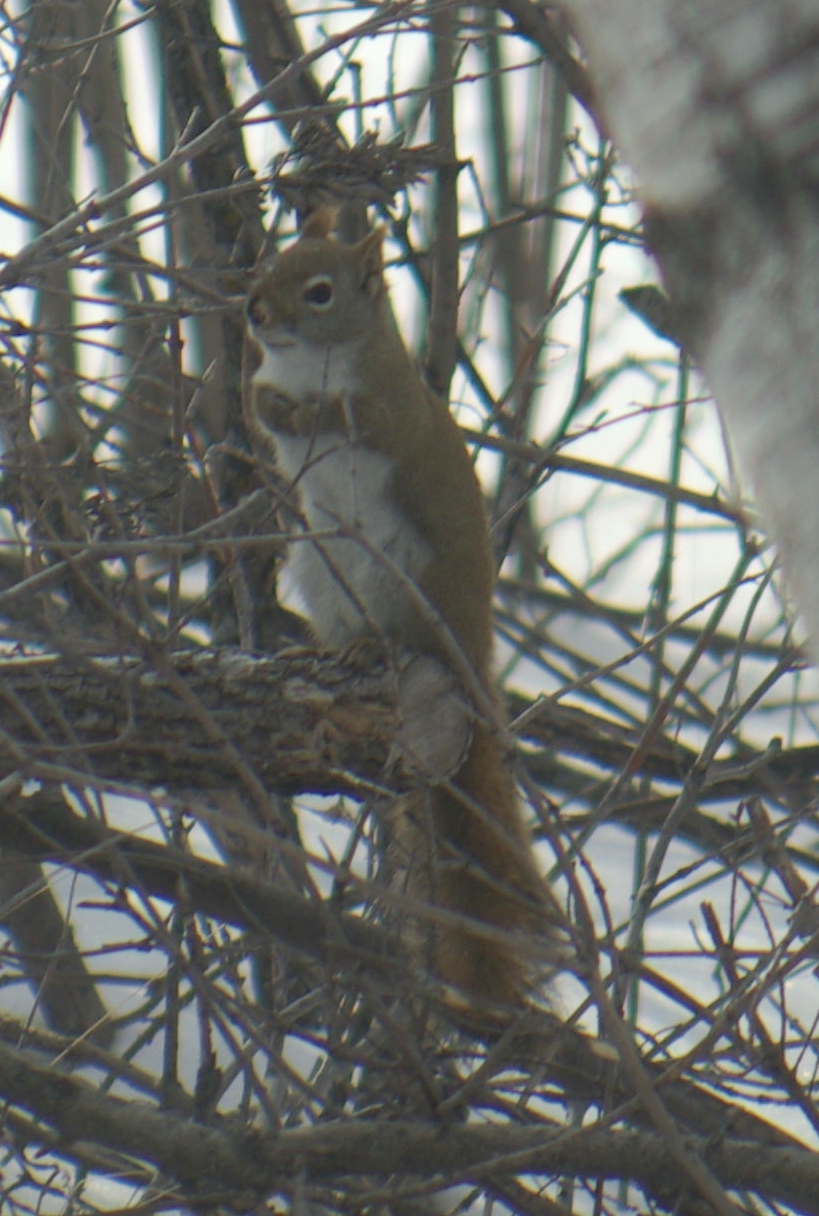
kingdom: Animalia
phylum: Chordata
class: Mammalia
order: Rodentia
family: Sciuridae
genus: Tamiasciurus
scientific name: Tamiasciurus hudsonicus
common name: Red squirrel
